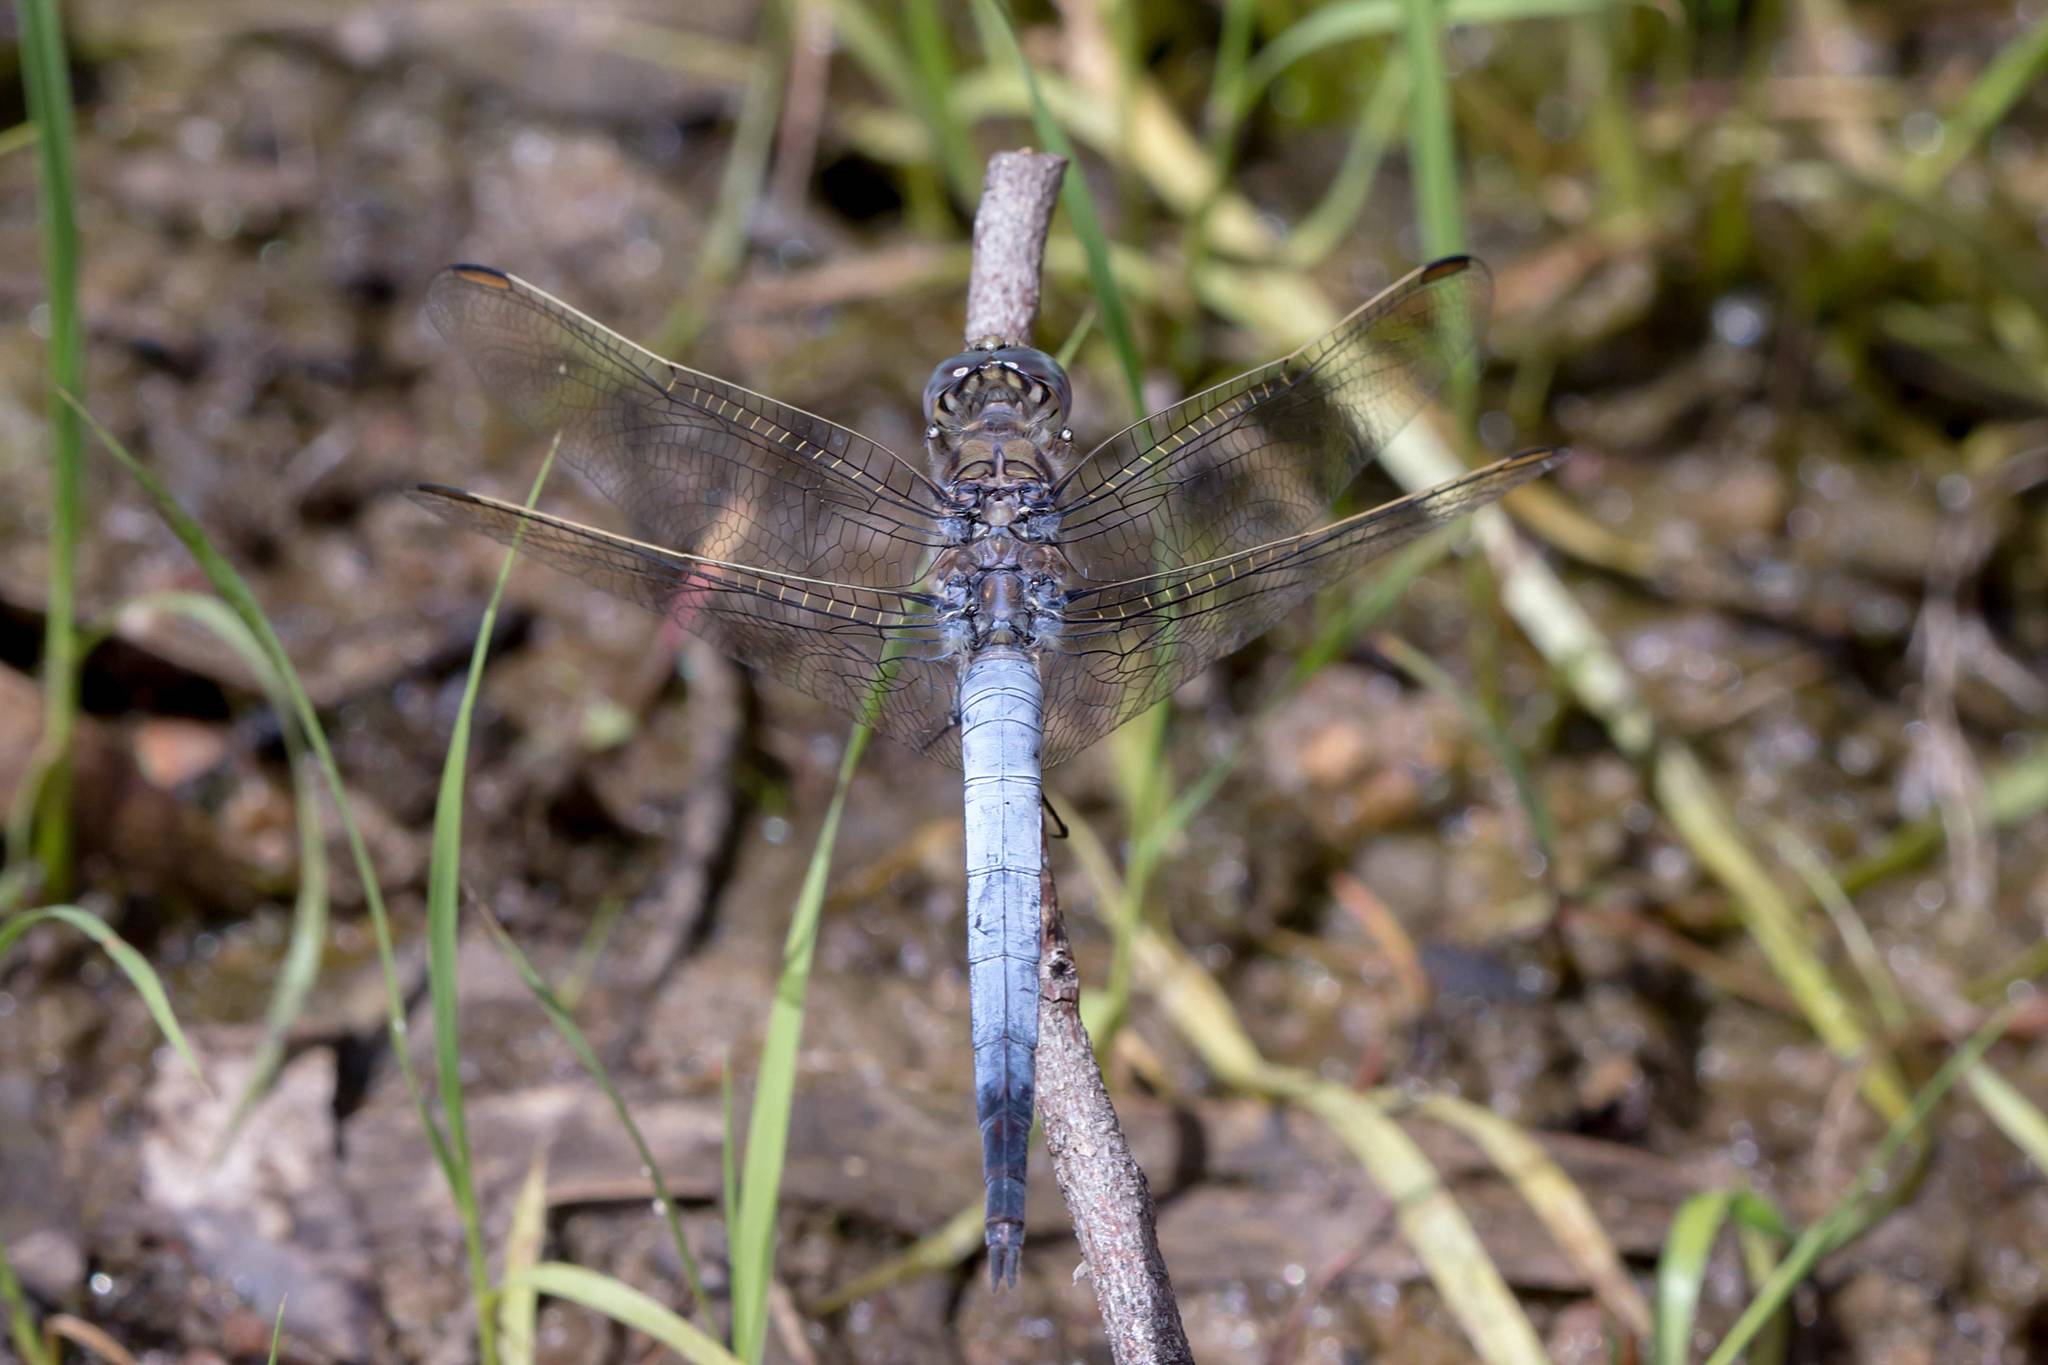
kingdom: Animalia
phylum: Arthropoda
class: Insecta
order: Odonata
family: Libellulidae
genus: Orthetrum
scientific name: Orthetrum caledonicum
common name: Blue skimmer
